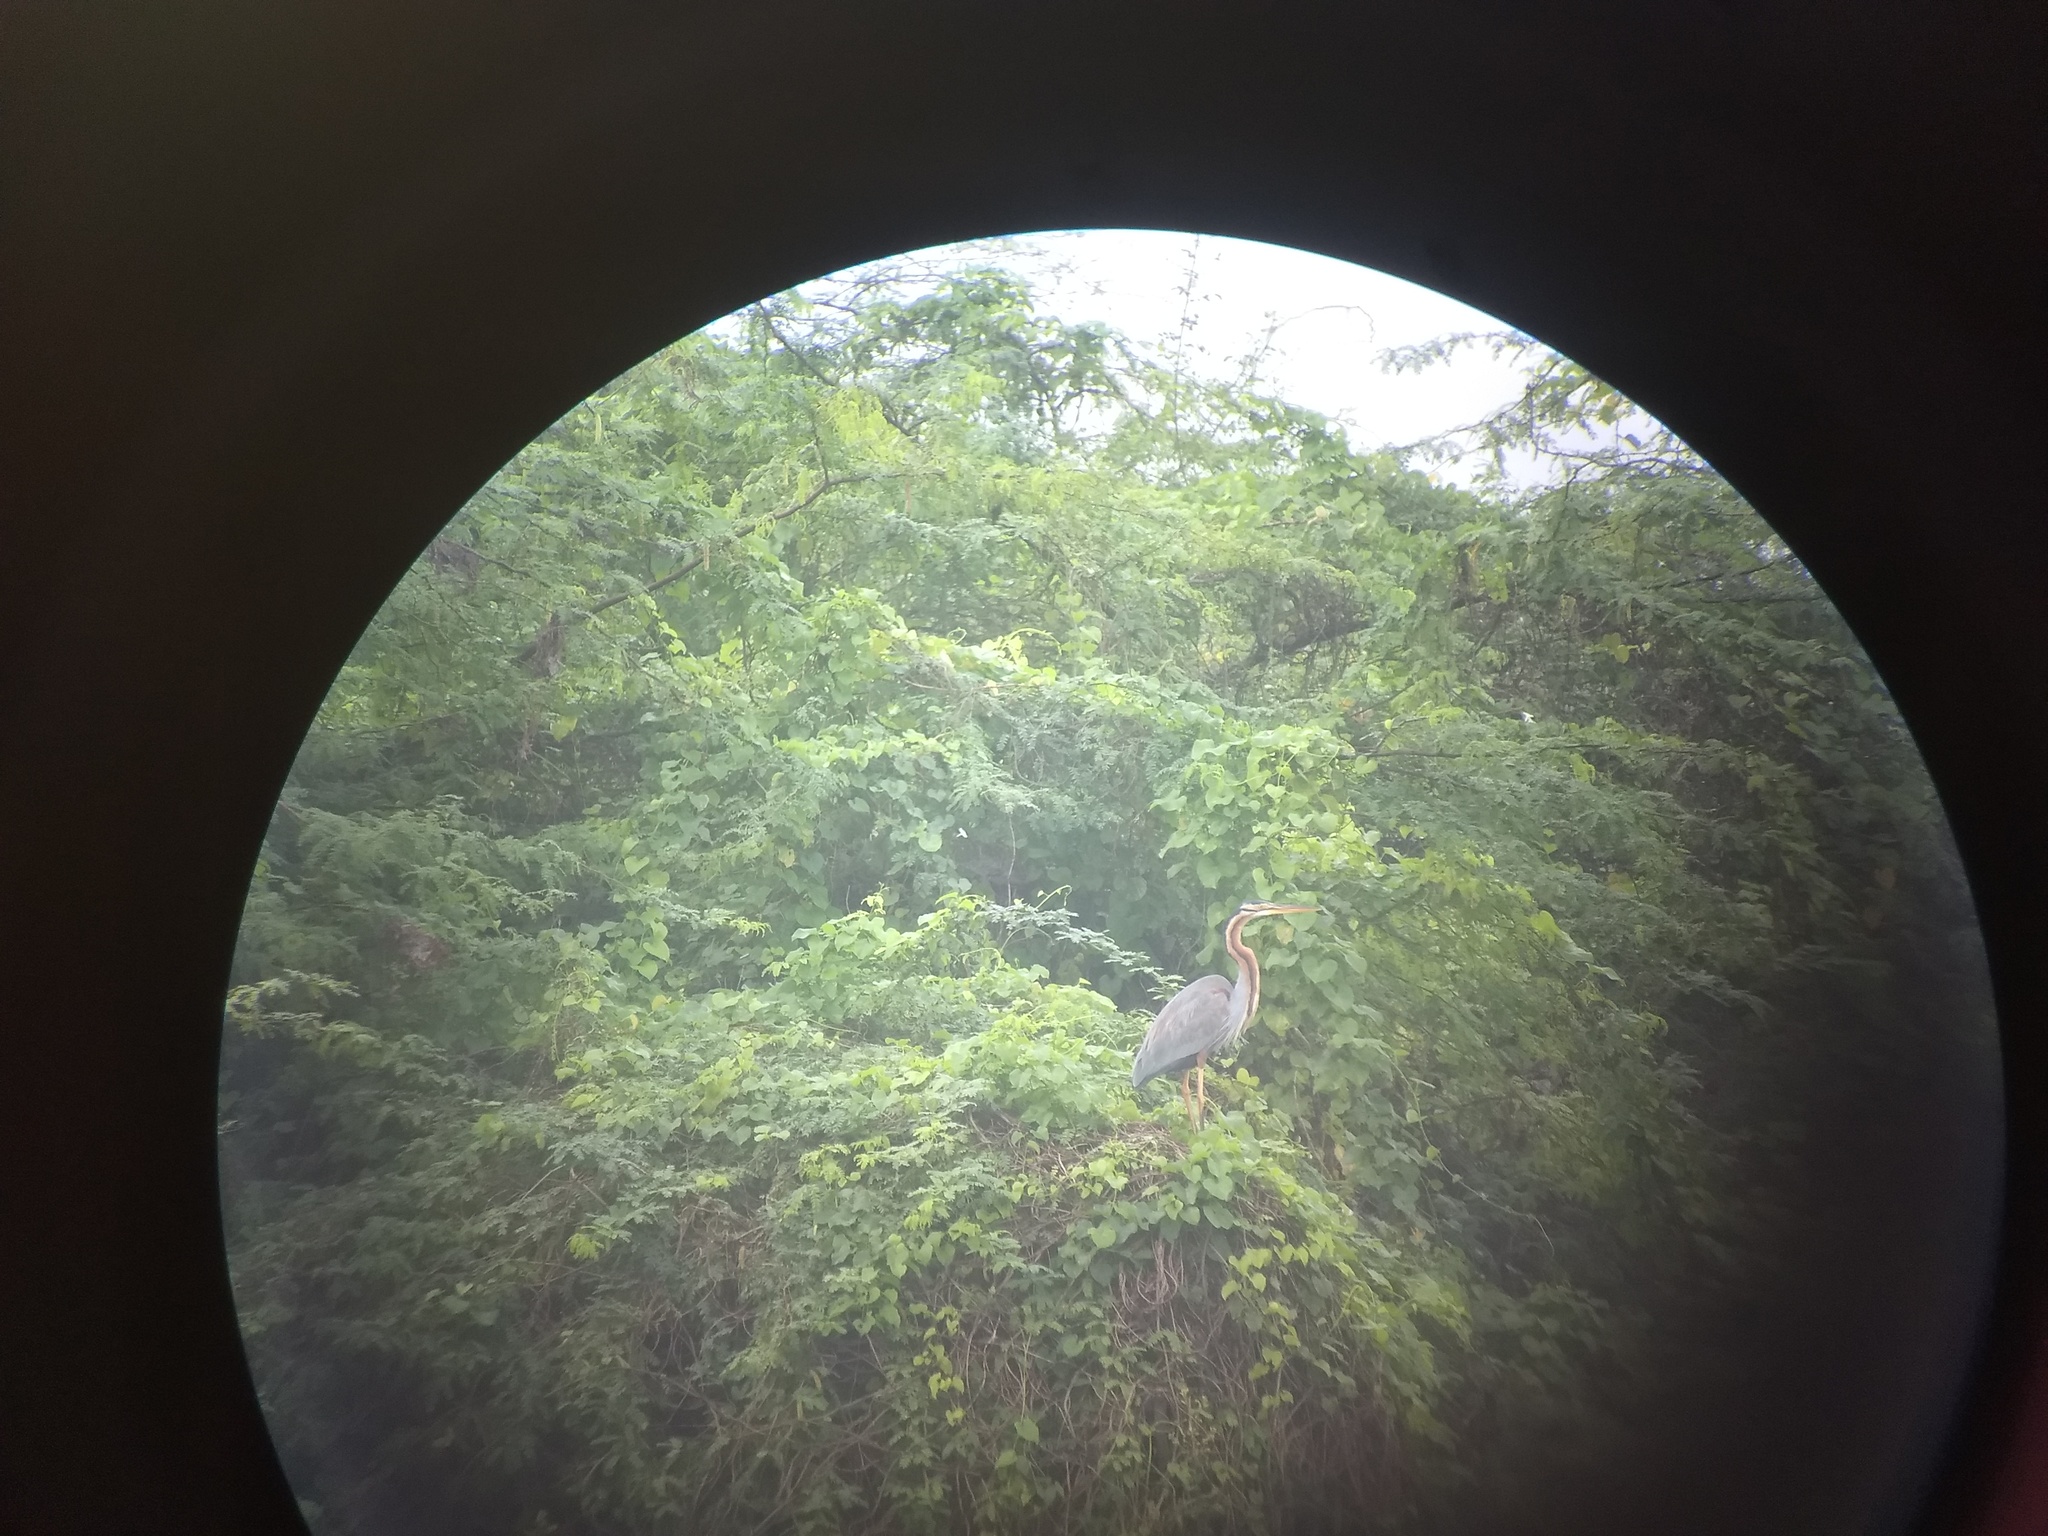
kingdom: Animalia
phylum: Chordata
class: Aves
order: Pelecaniformes
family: Ardeidae
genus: Ardea
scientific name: Ardea purpurea
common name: Purple heron
